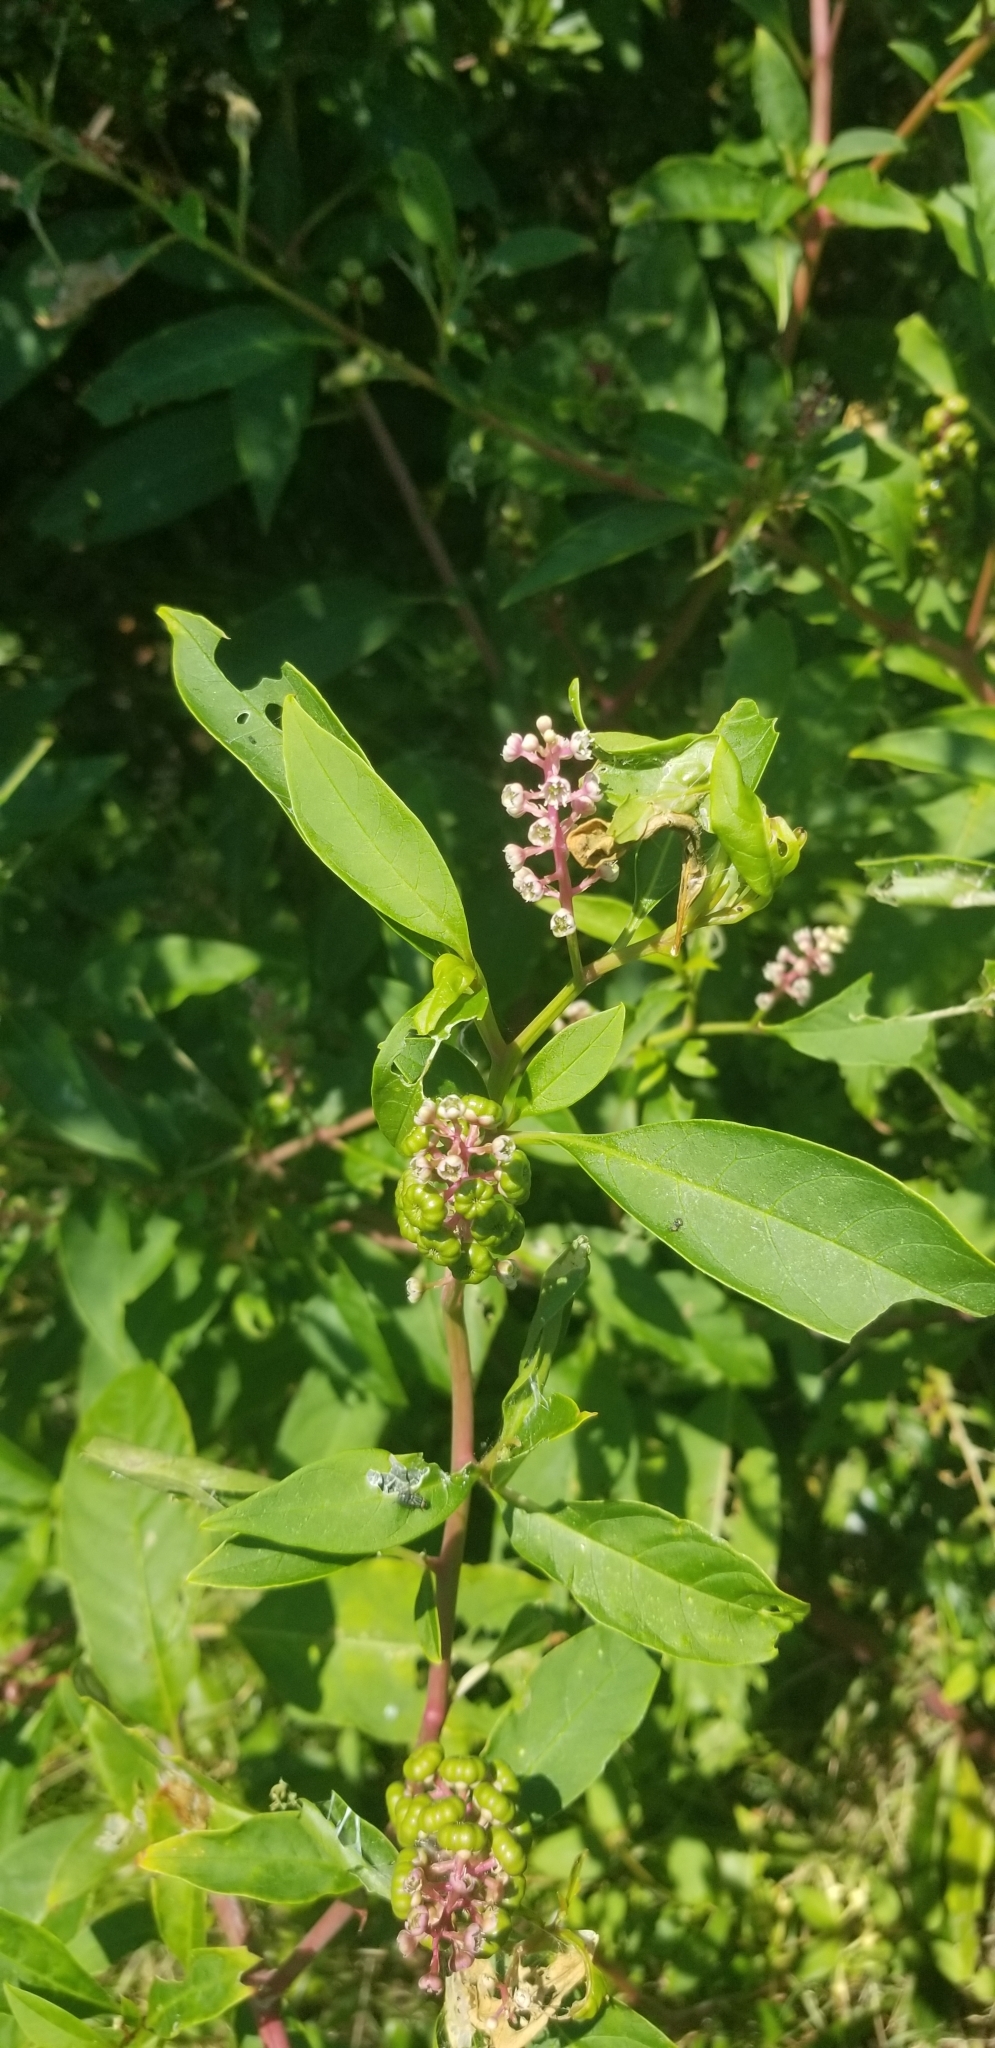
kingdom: Plantae
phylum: Tracheophyta
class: Magnoliopsida
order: Caryophyllales
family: Phytolaccaceae
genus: Phytolacca
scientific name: Phytolacca americana
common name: American pokeweed
